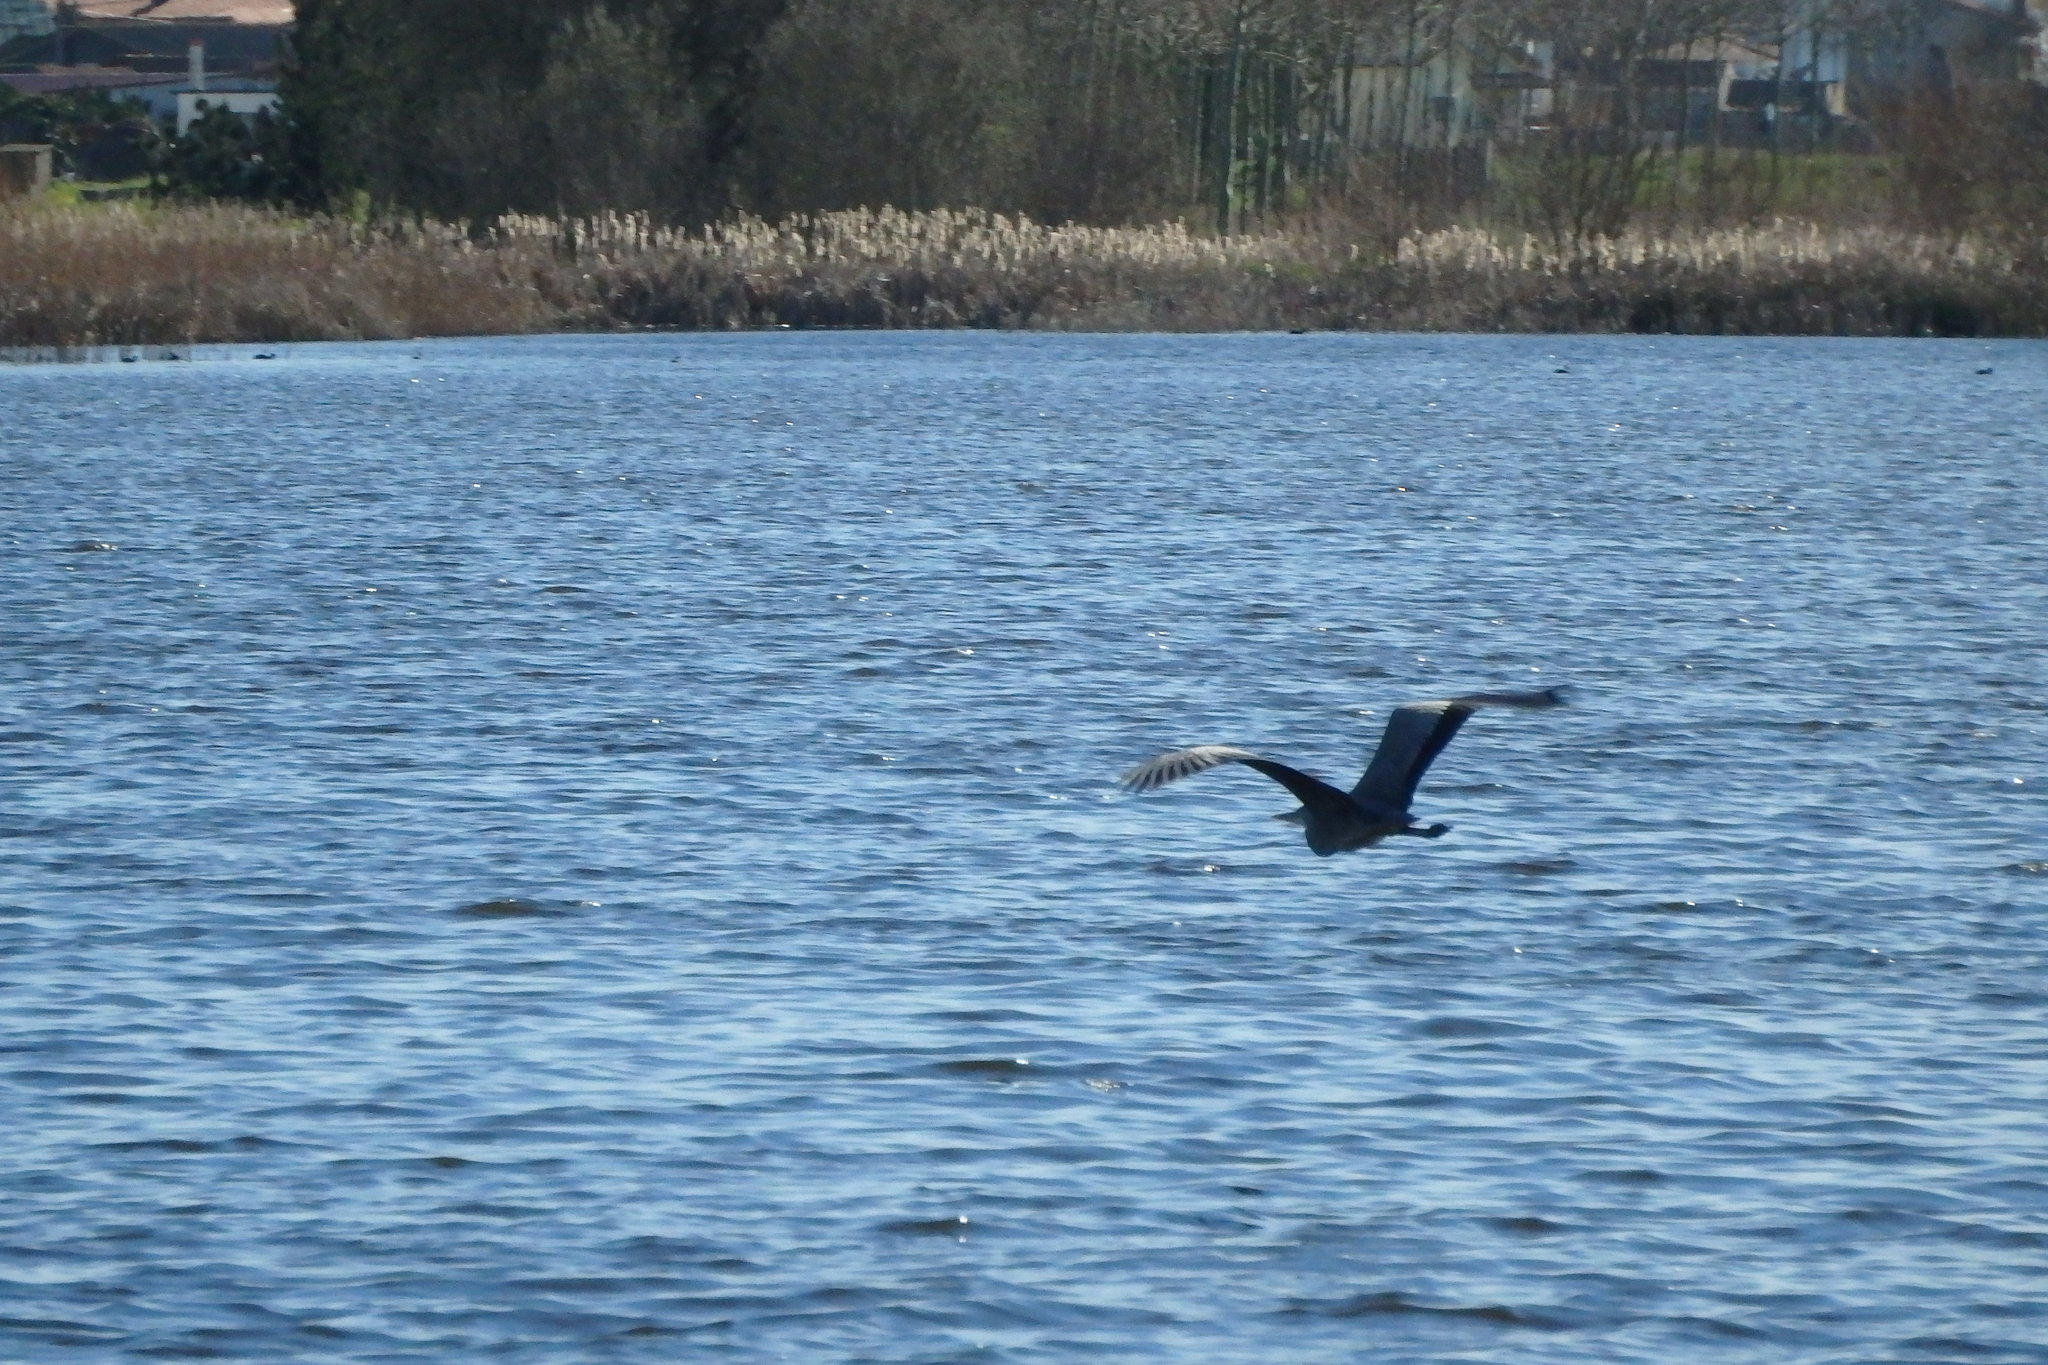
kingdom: Animalia
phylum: Chordata
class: Aves
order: Pelecaniformes
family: Ardeidae
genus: Ardea
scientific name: Ardea cinerea
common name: Grey heron
